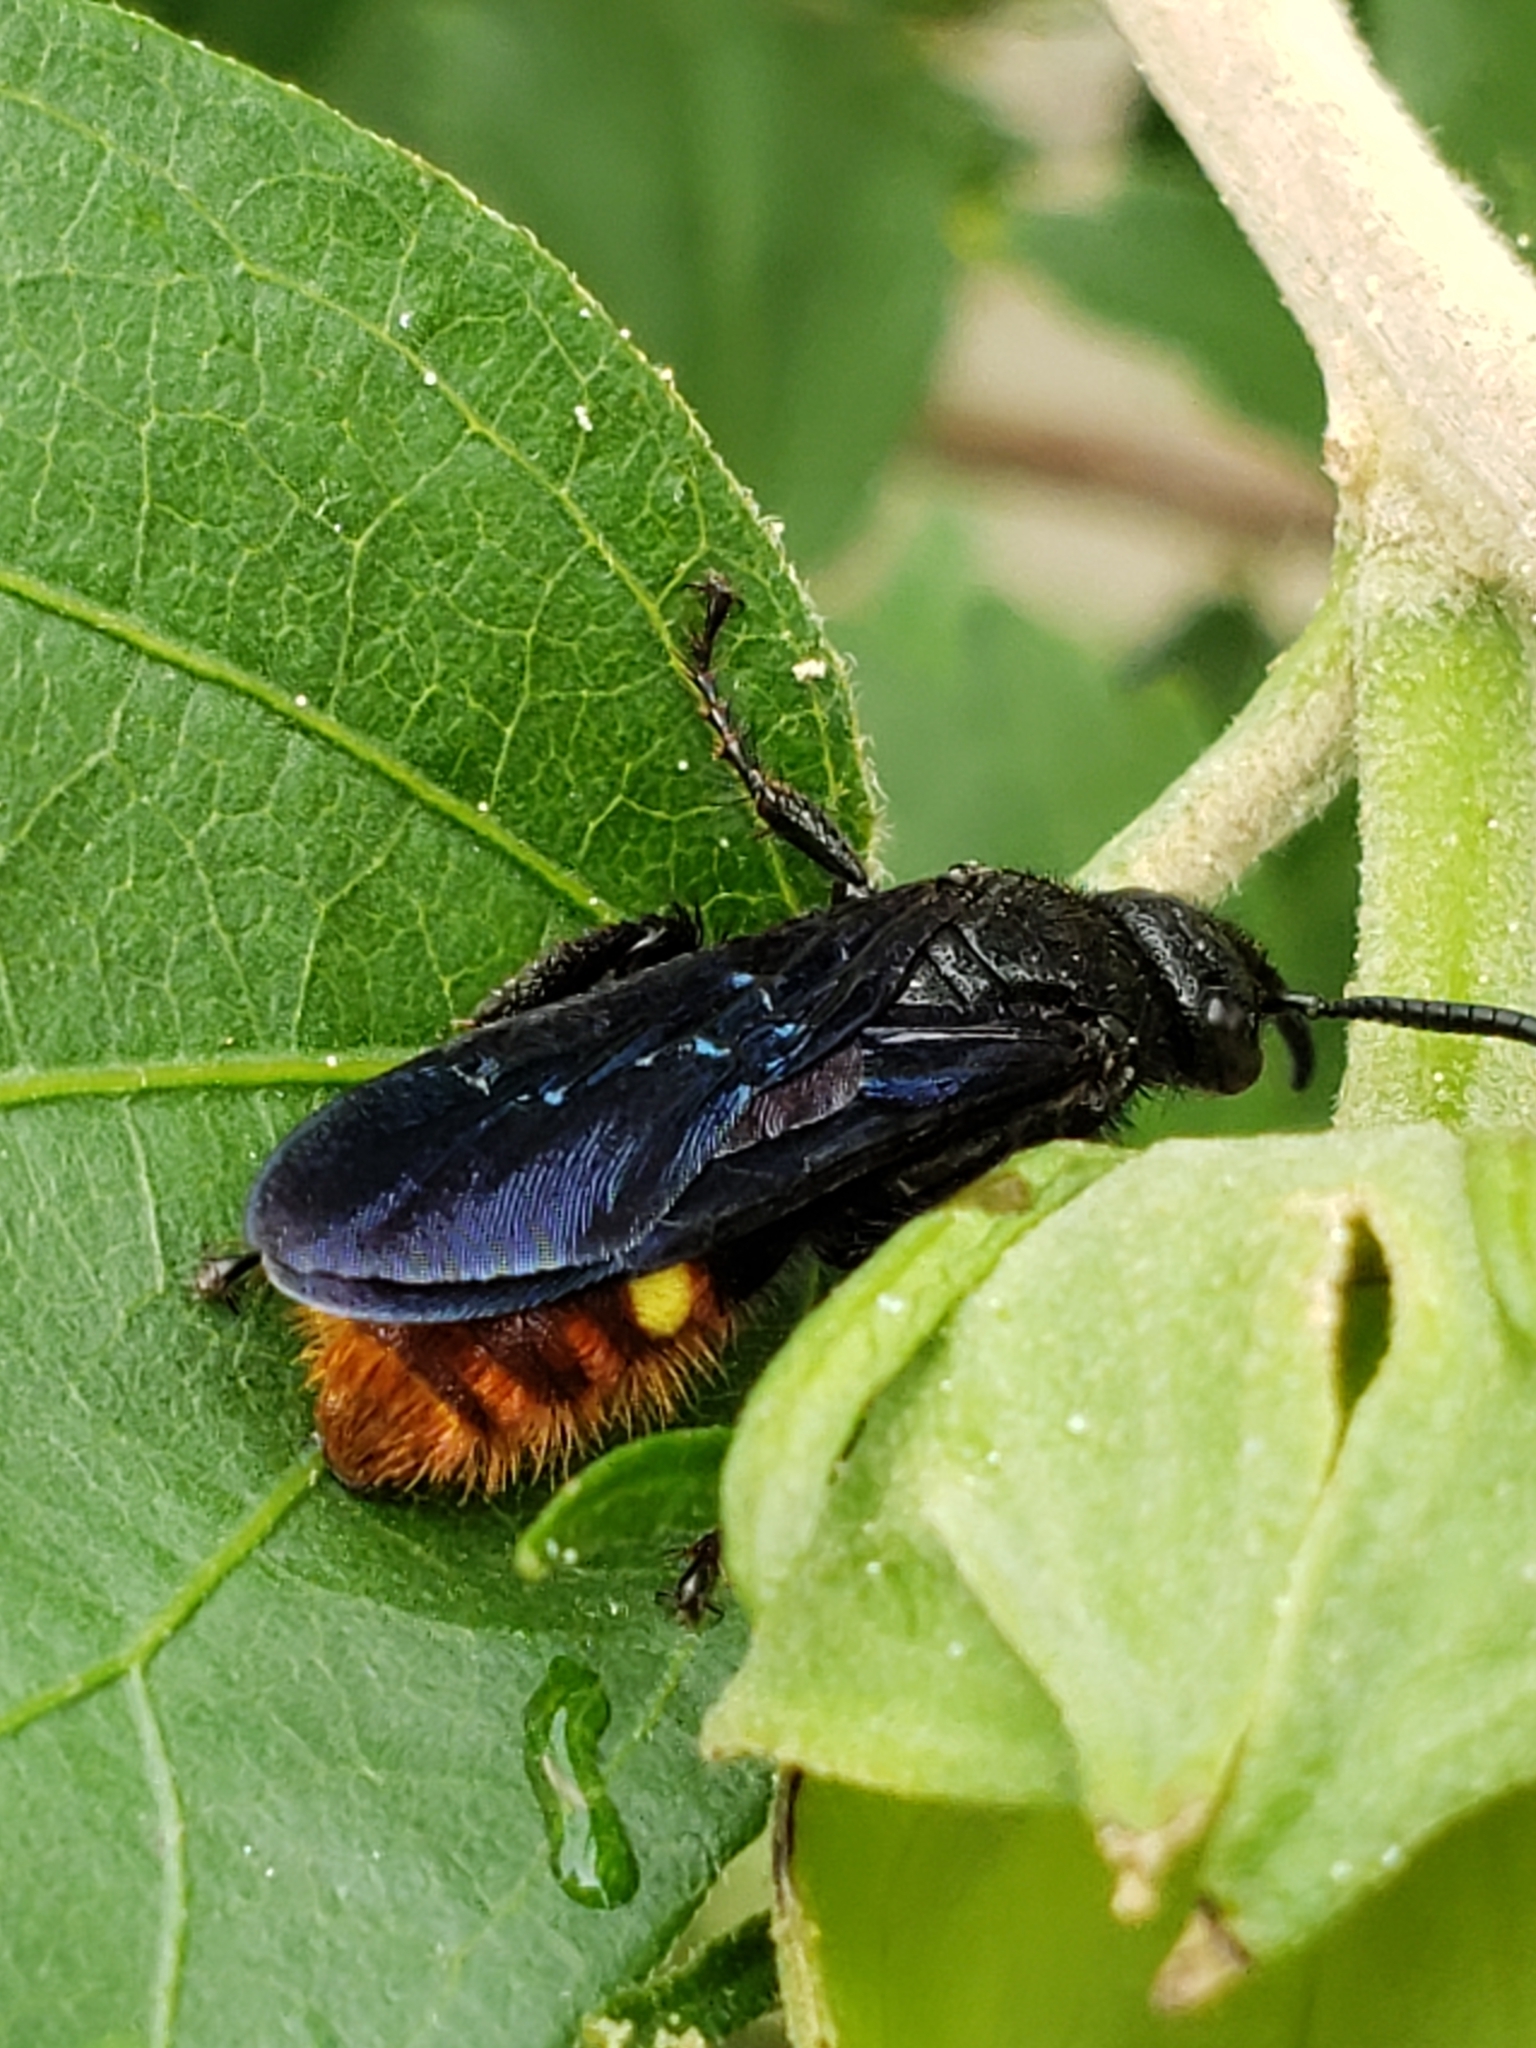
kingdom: Animalia
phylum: Arthropoda
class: Insecta
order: Hymenoptera
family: Scoliidae
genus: Scolia
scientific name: Scolia dubia
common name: Blue-winged scoliid wasp
